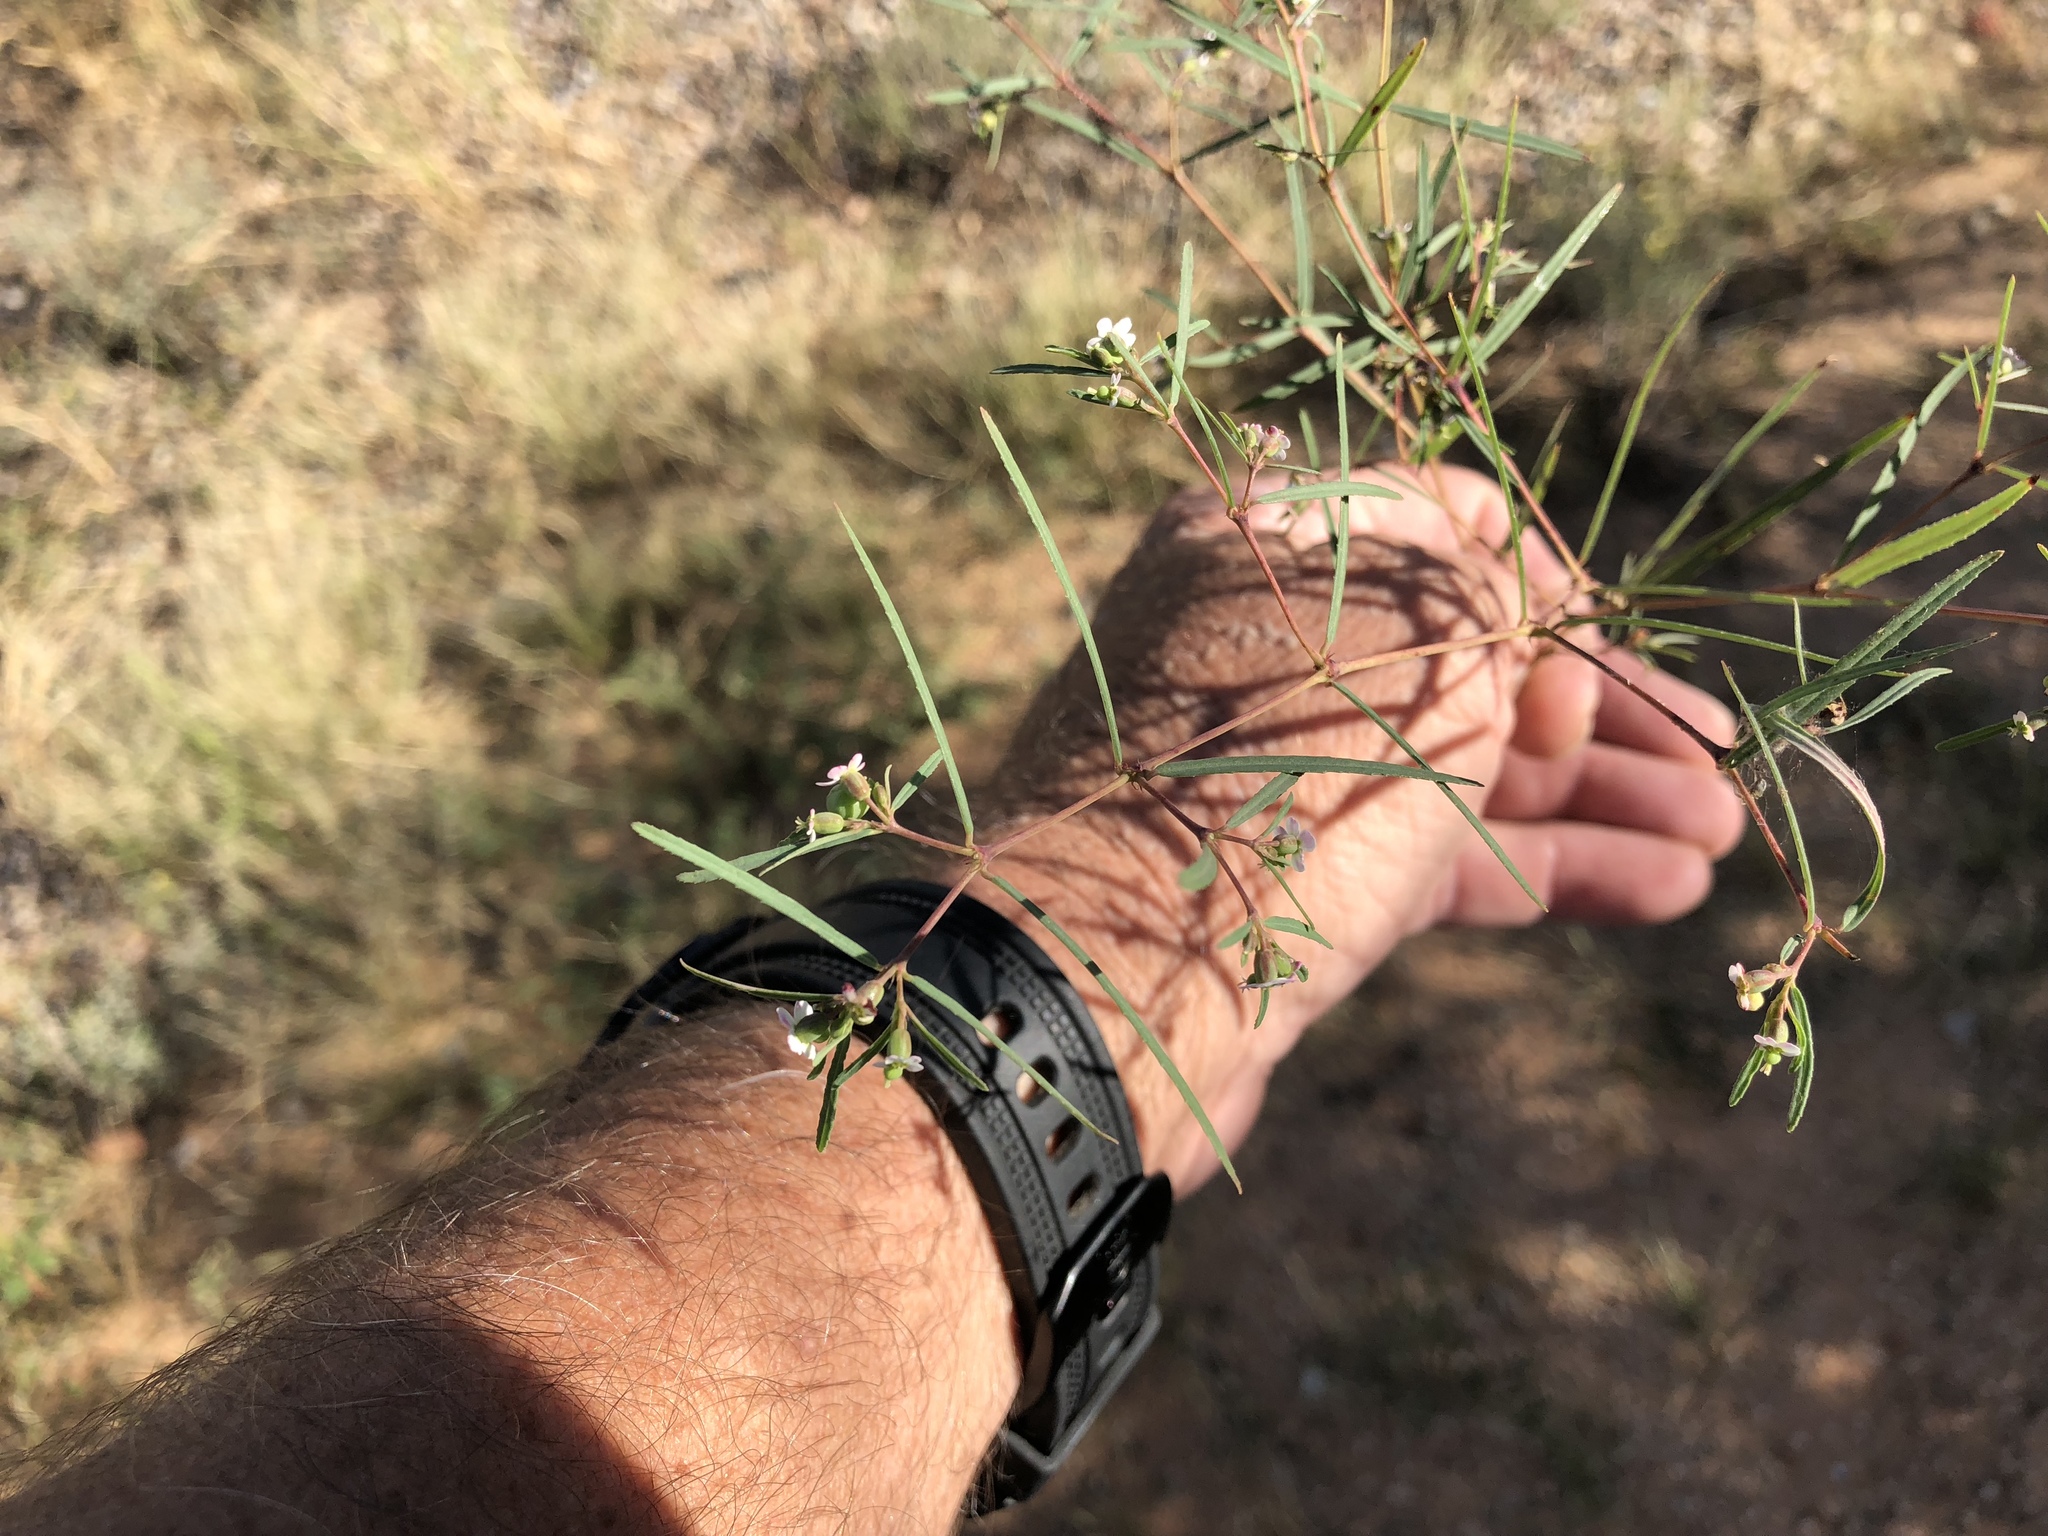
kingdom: Plantae
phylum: Tracheophyta
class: Magnoliopsida
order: Malpighiales
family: Euphorbiaceae
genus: Euphorbia
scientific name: Euphorbia florida
